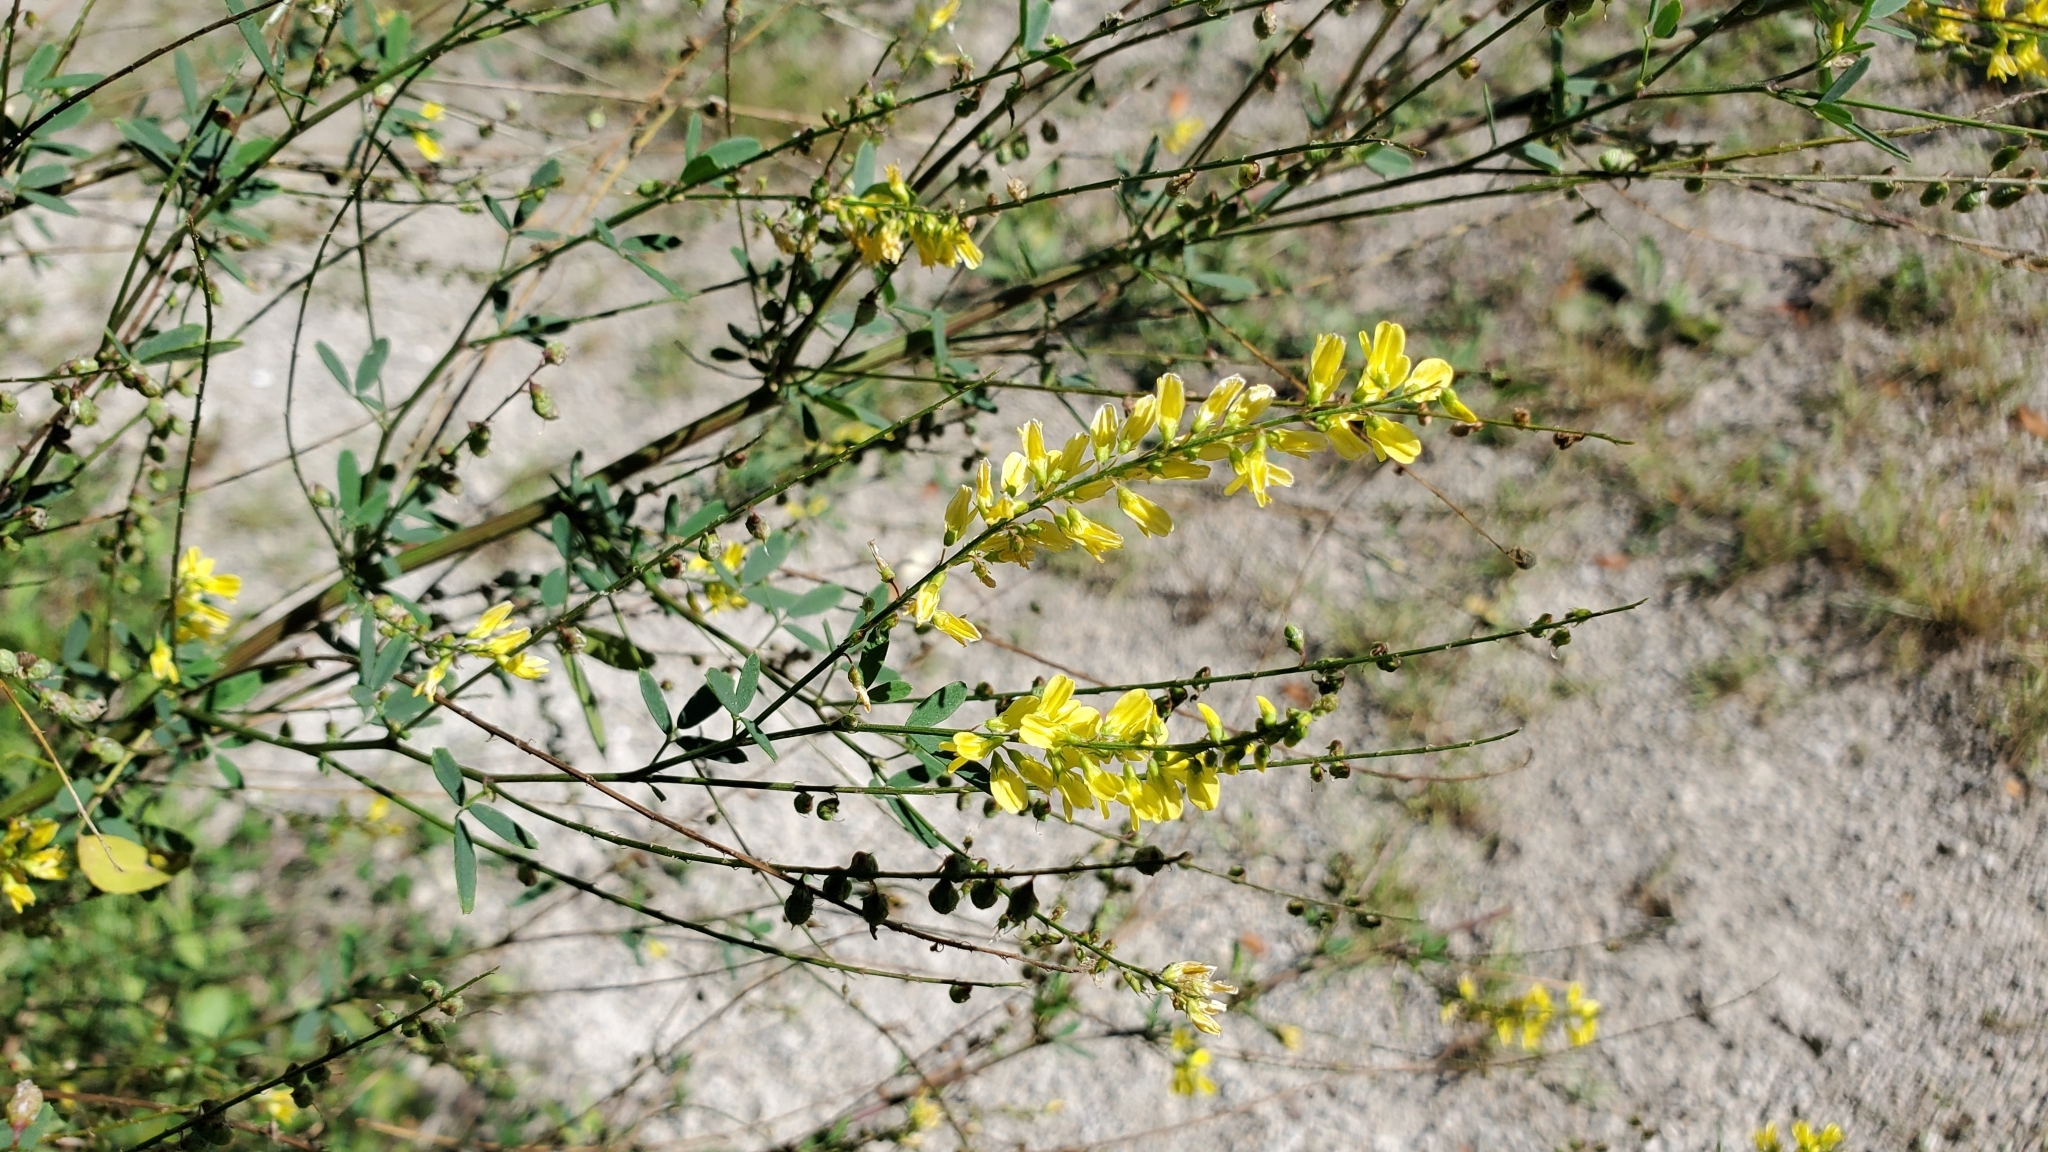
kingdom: Plantae
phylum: Tracheophyta
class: Magnoliopsida
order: Fabales
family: Fabaceae
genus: Melilotus
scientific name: Melilotus officinalis
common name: Sweetclover
